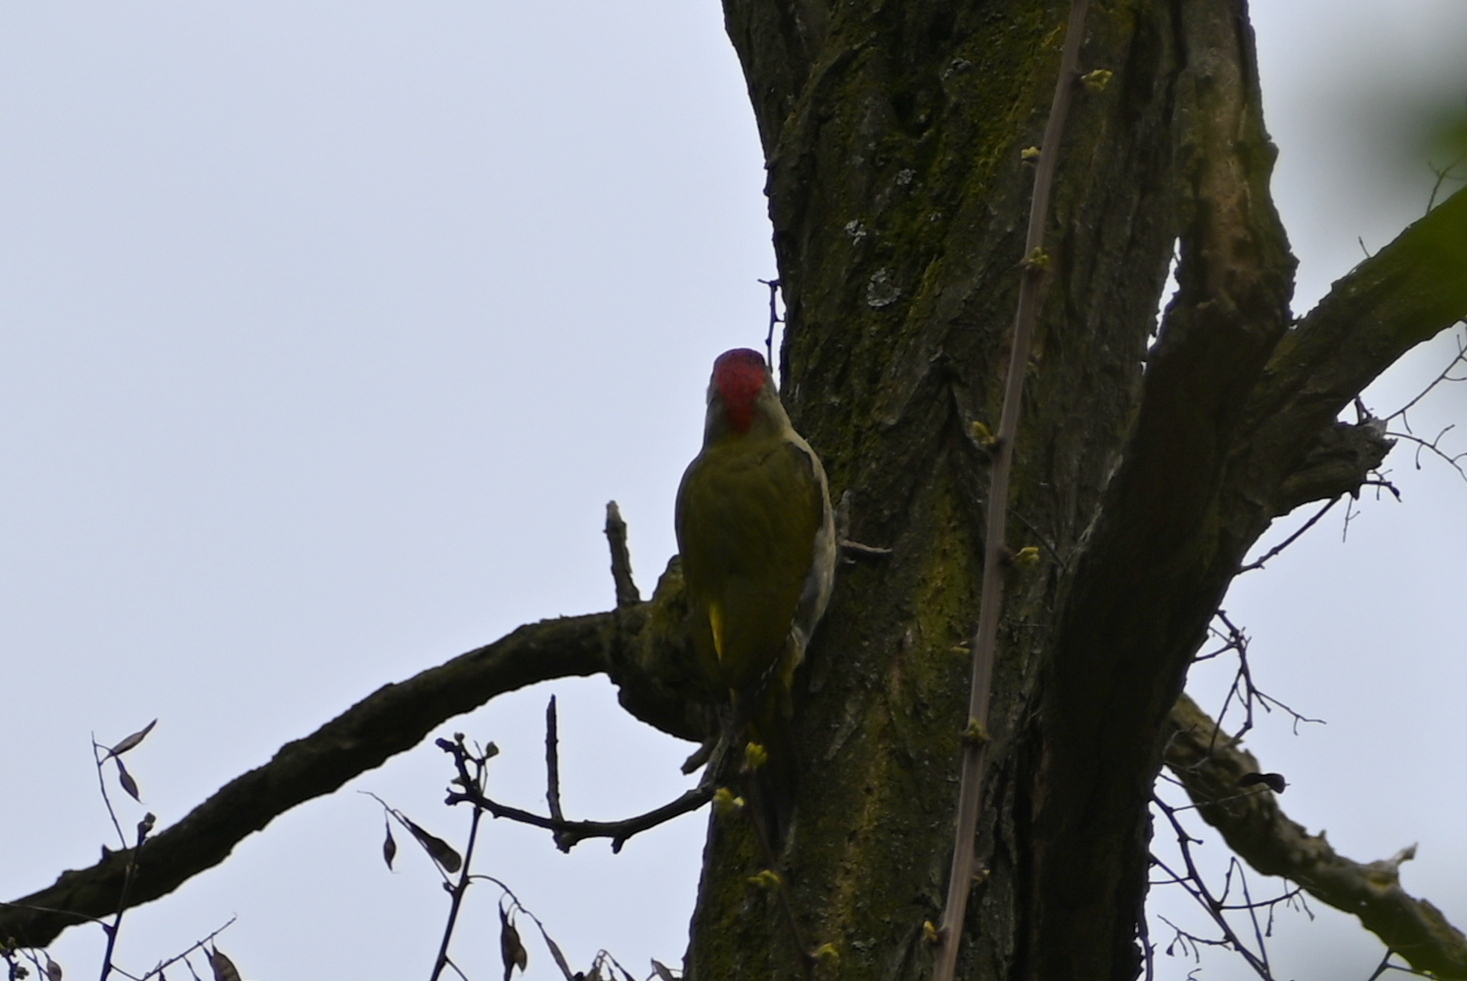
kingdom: Animalia
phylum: Chordata
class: Aves
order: Piciformes
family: Picidae
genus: Picus
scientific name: Picus viridis
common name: European green woodpecker
